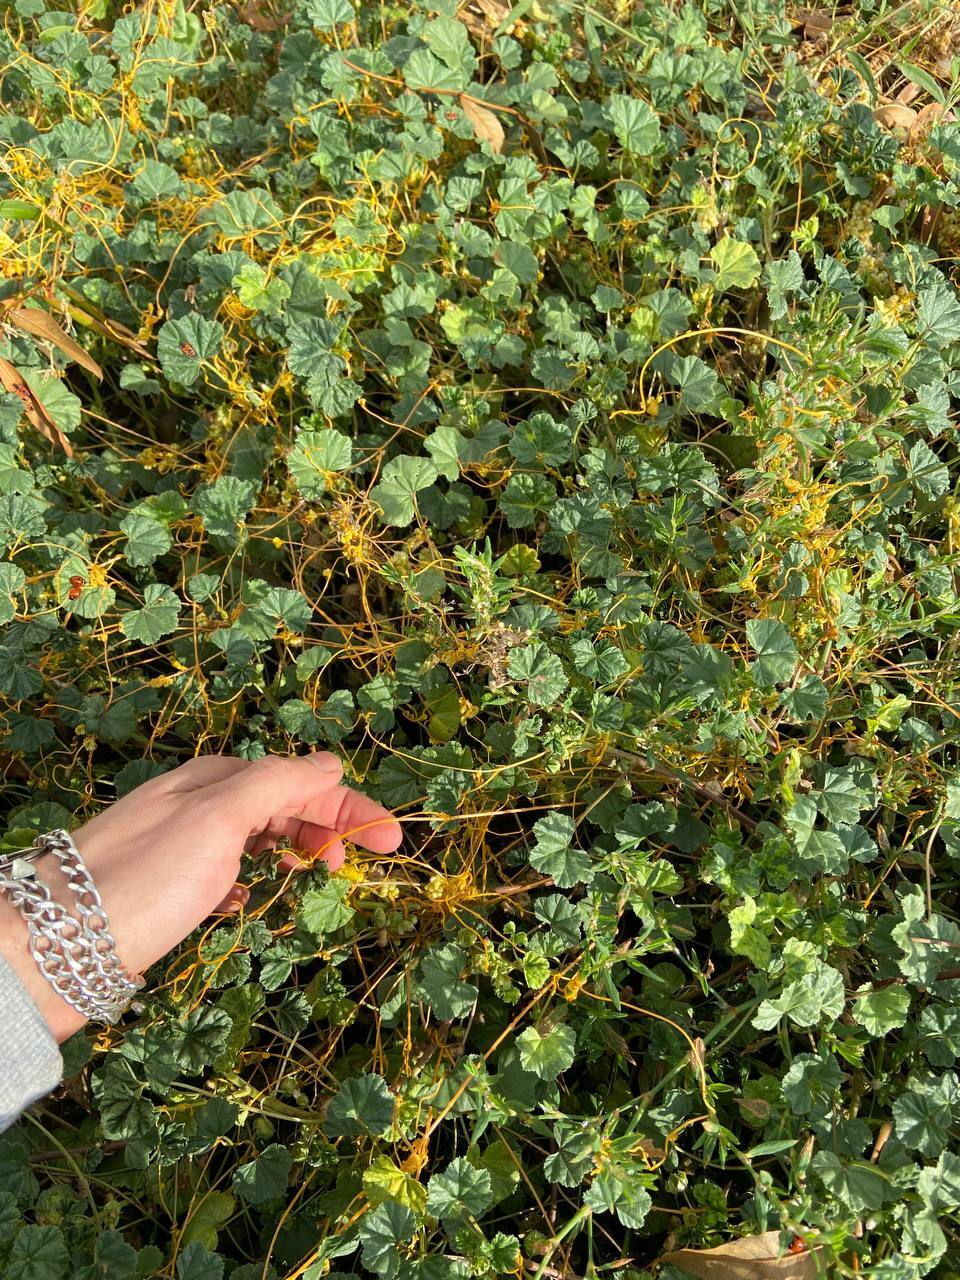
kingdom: Plantae
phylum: Tracheophyta
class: Magnoliopsida
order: Solanales
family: Convolvulaceae
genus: Cuscuta
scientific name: Cuscuta campestris
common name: Yellow dodder
